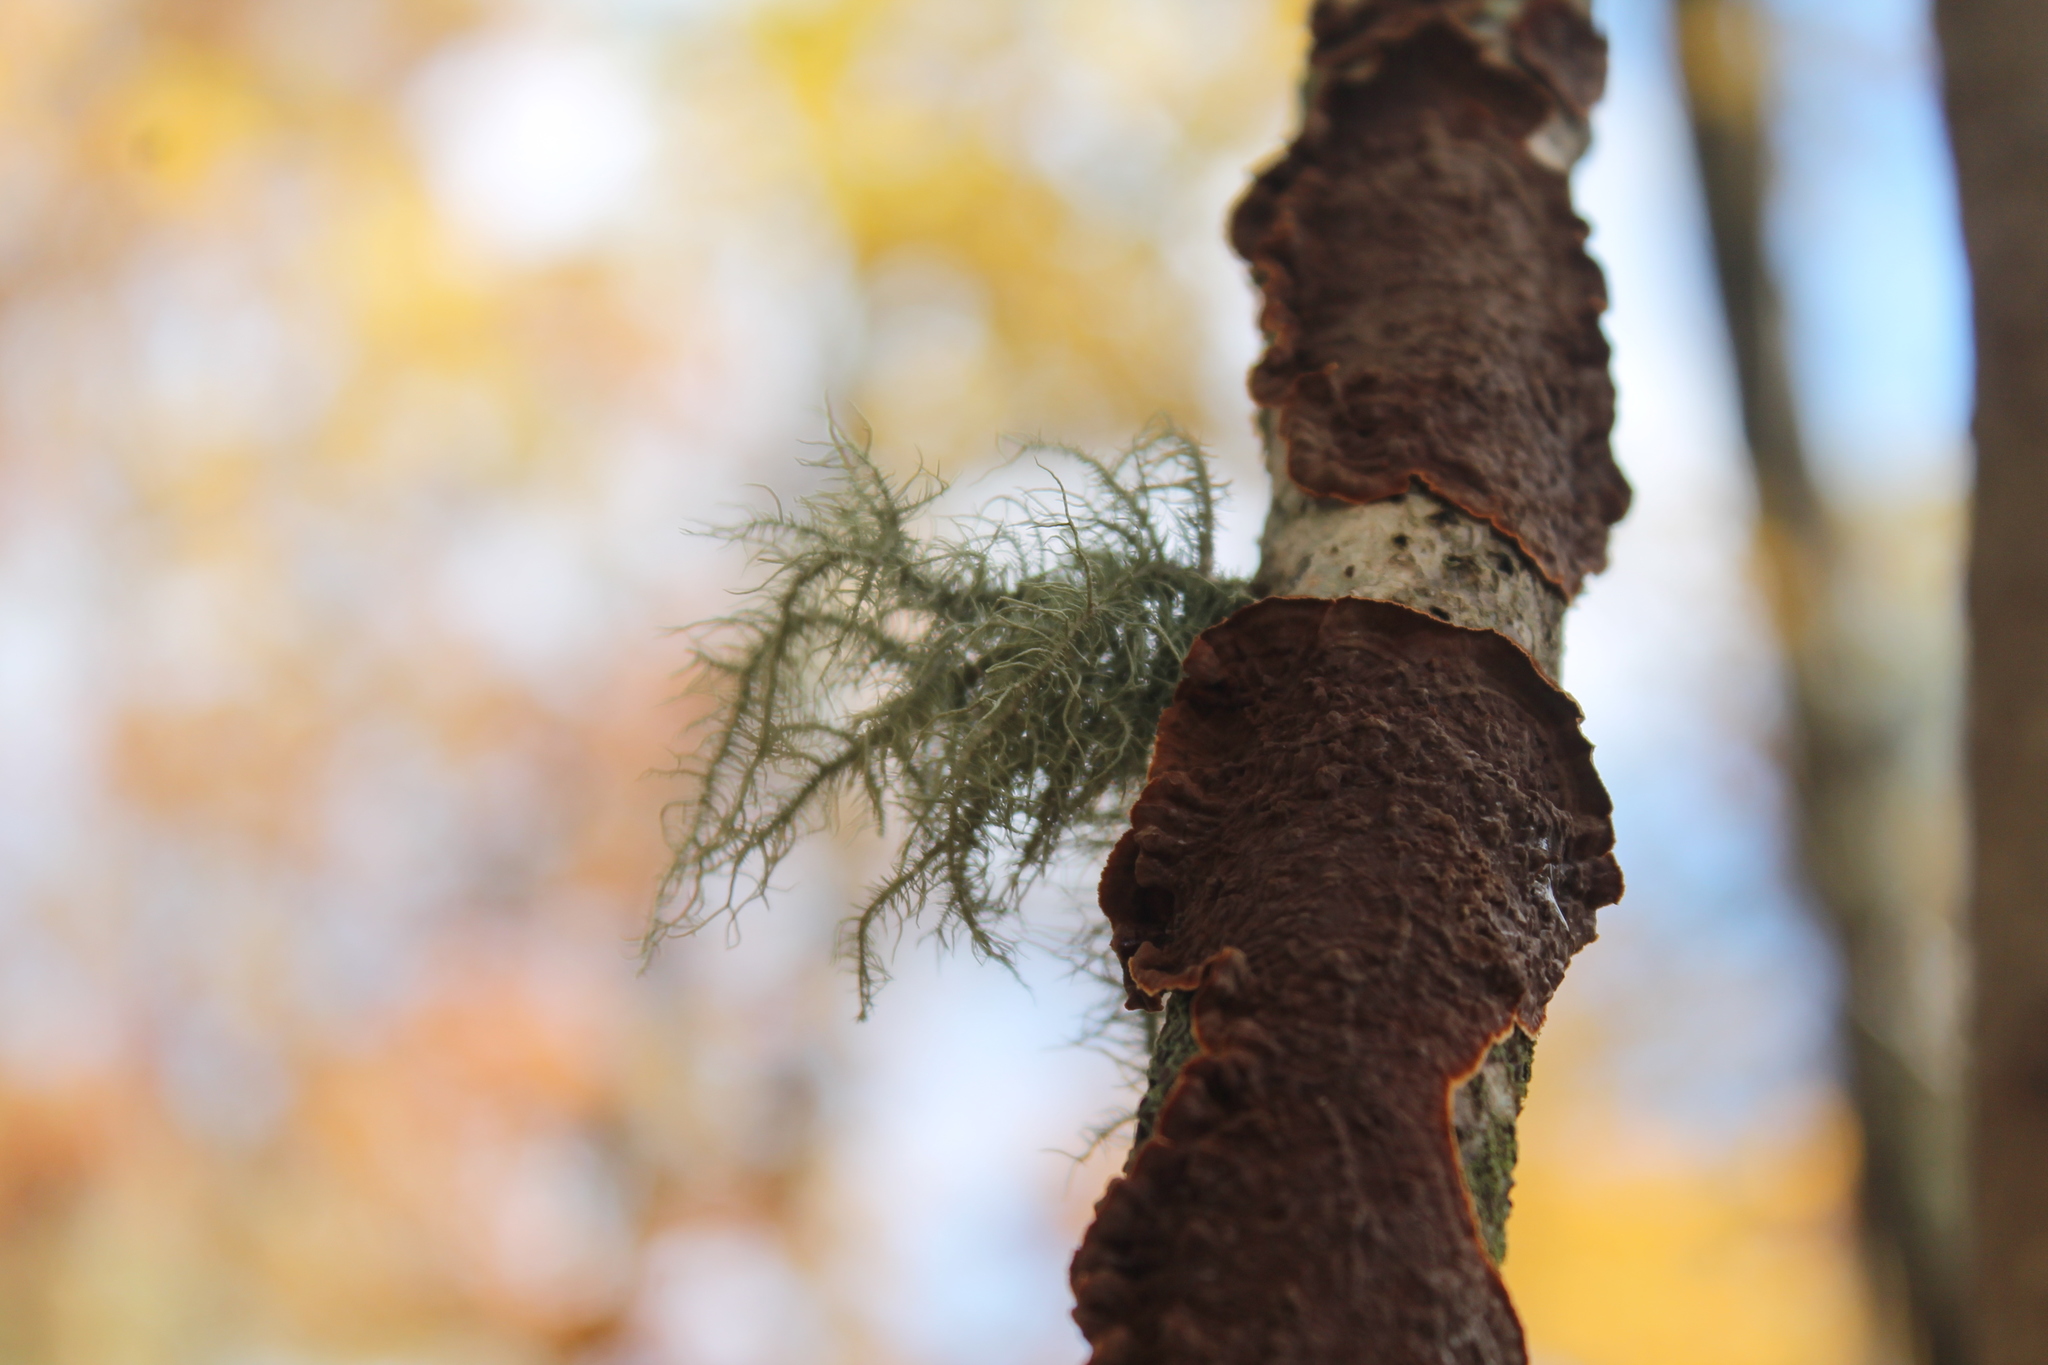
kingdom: Fungi
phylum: Ascomycota
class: Lecanoromycetes
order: Lecanorales
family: Parmeliaceae
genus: Usnea
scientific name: Usnea strigosa
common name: Bushy beard lichen
